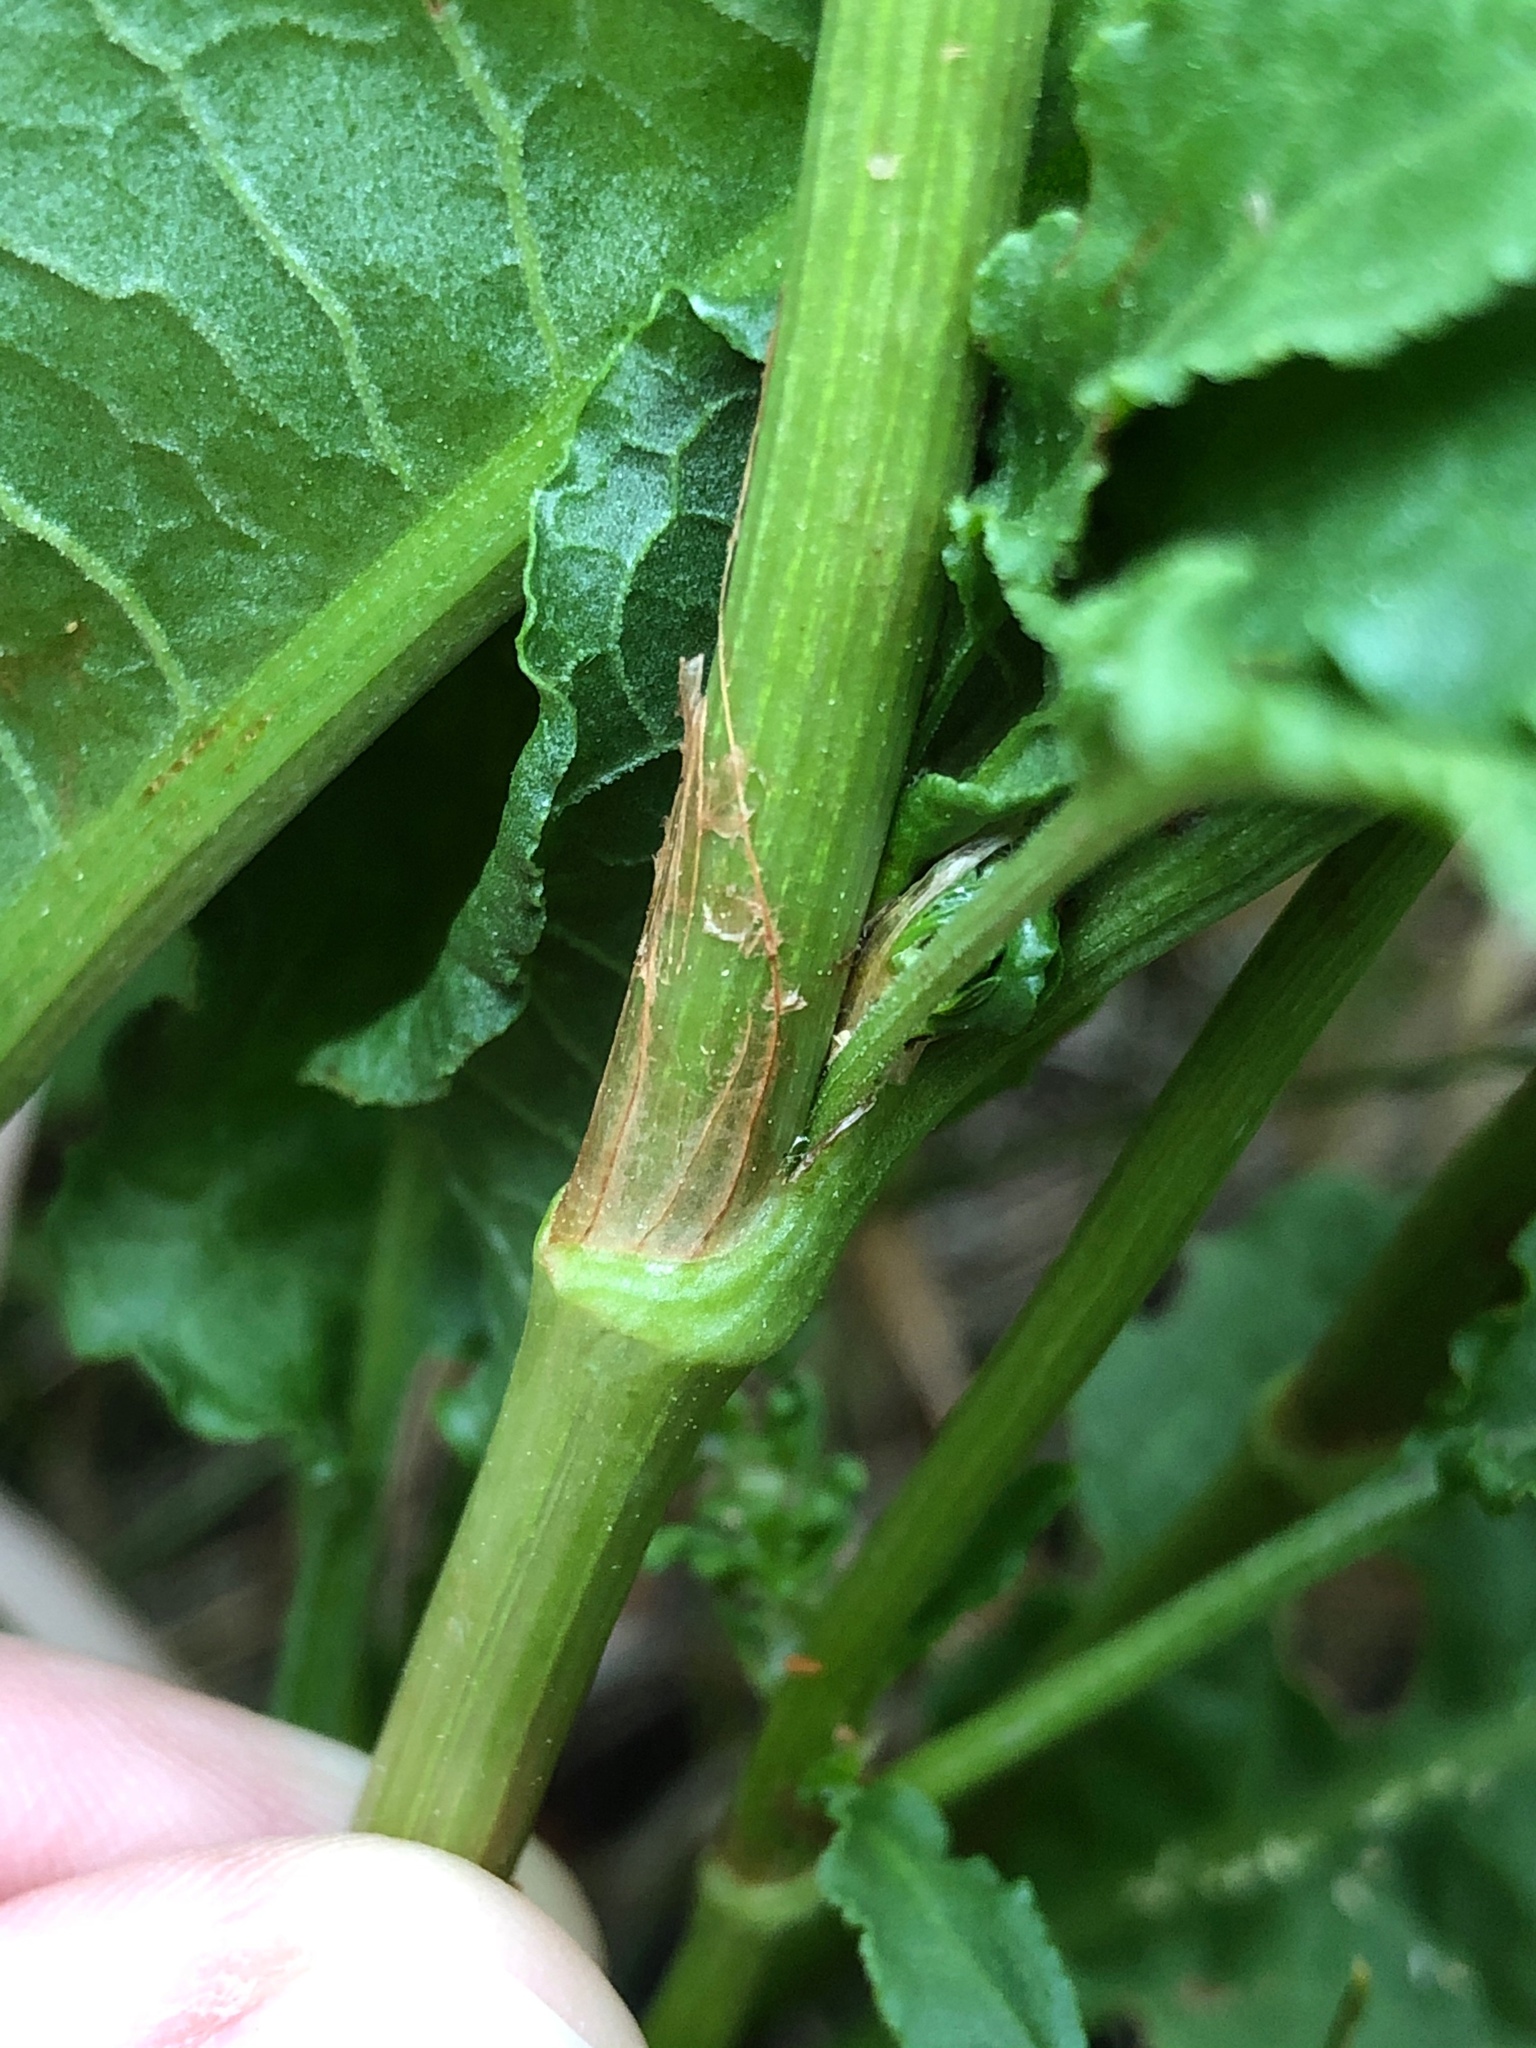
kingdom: Plantae
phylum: Tracheophyta
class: Magnoliopsida
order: Caryophyllales
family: Polygonaceae
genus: Rumex
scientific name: Rumex crispus
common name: Curled dock
